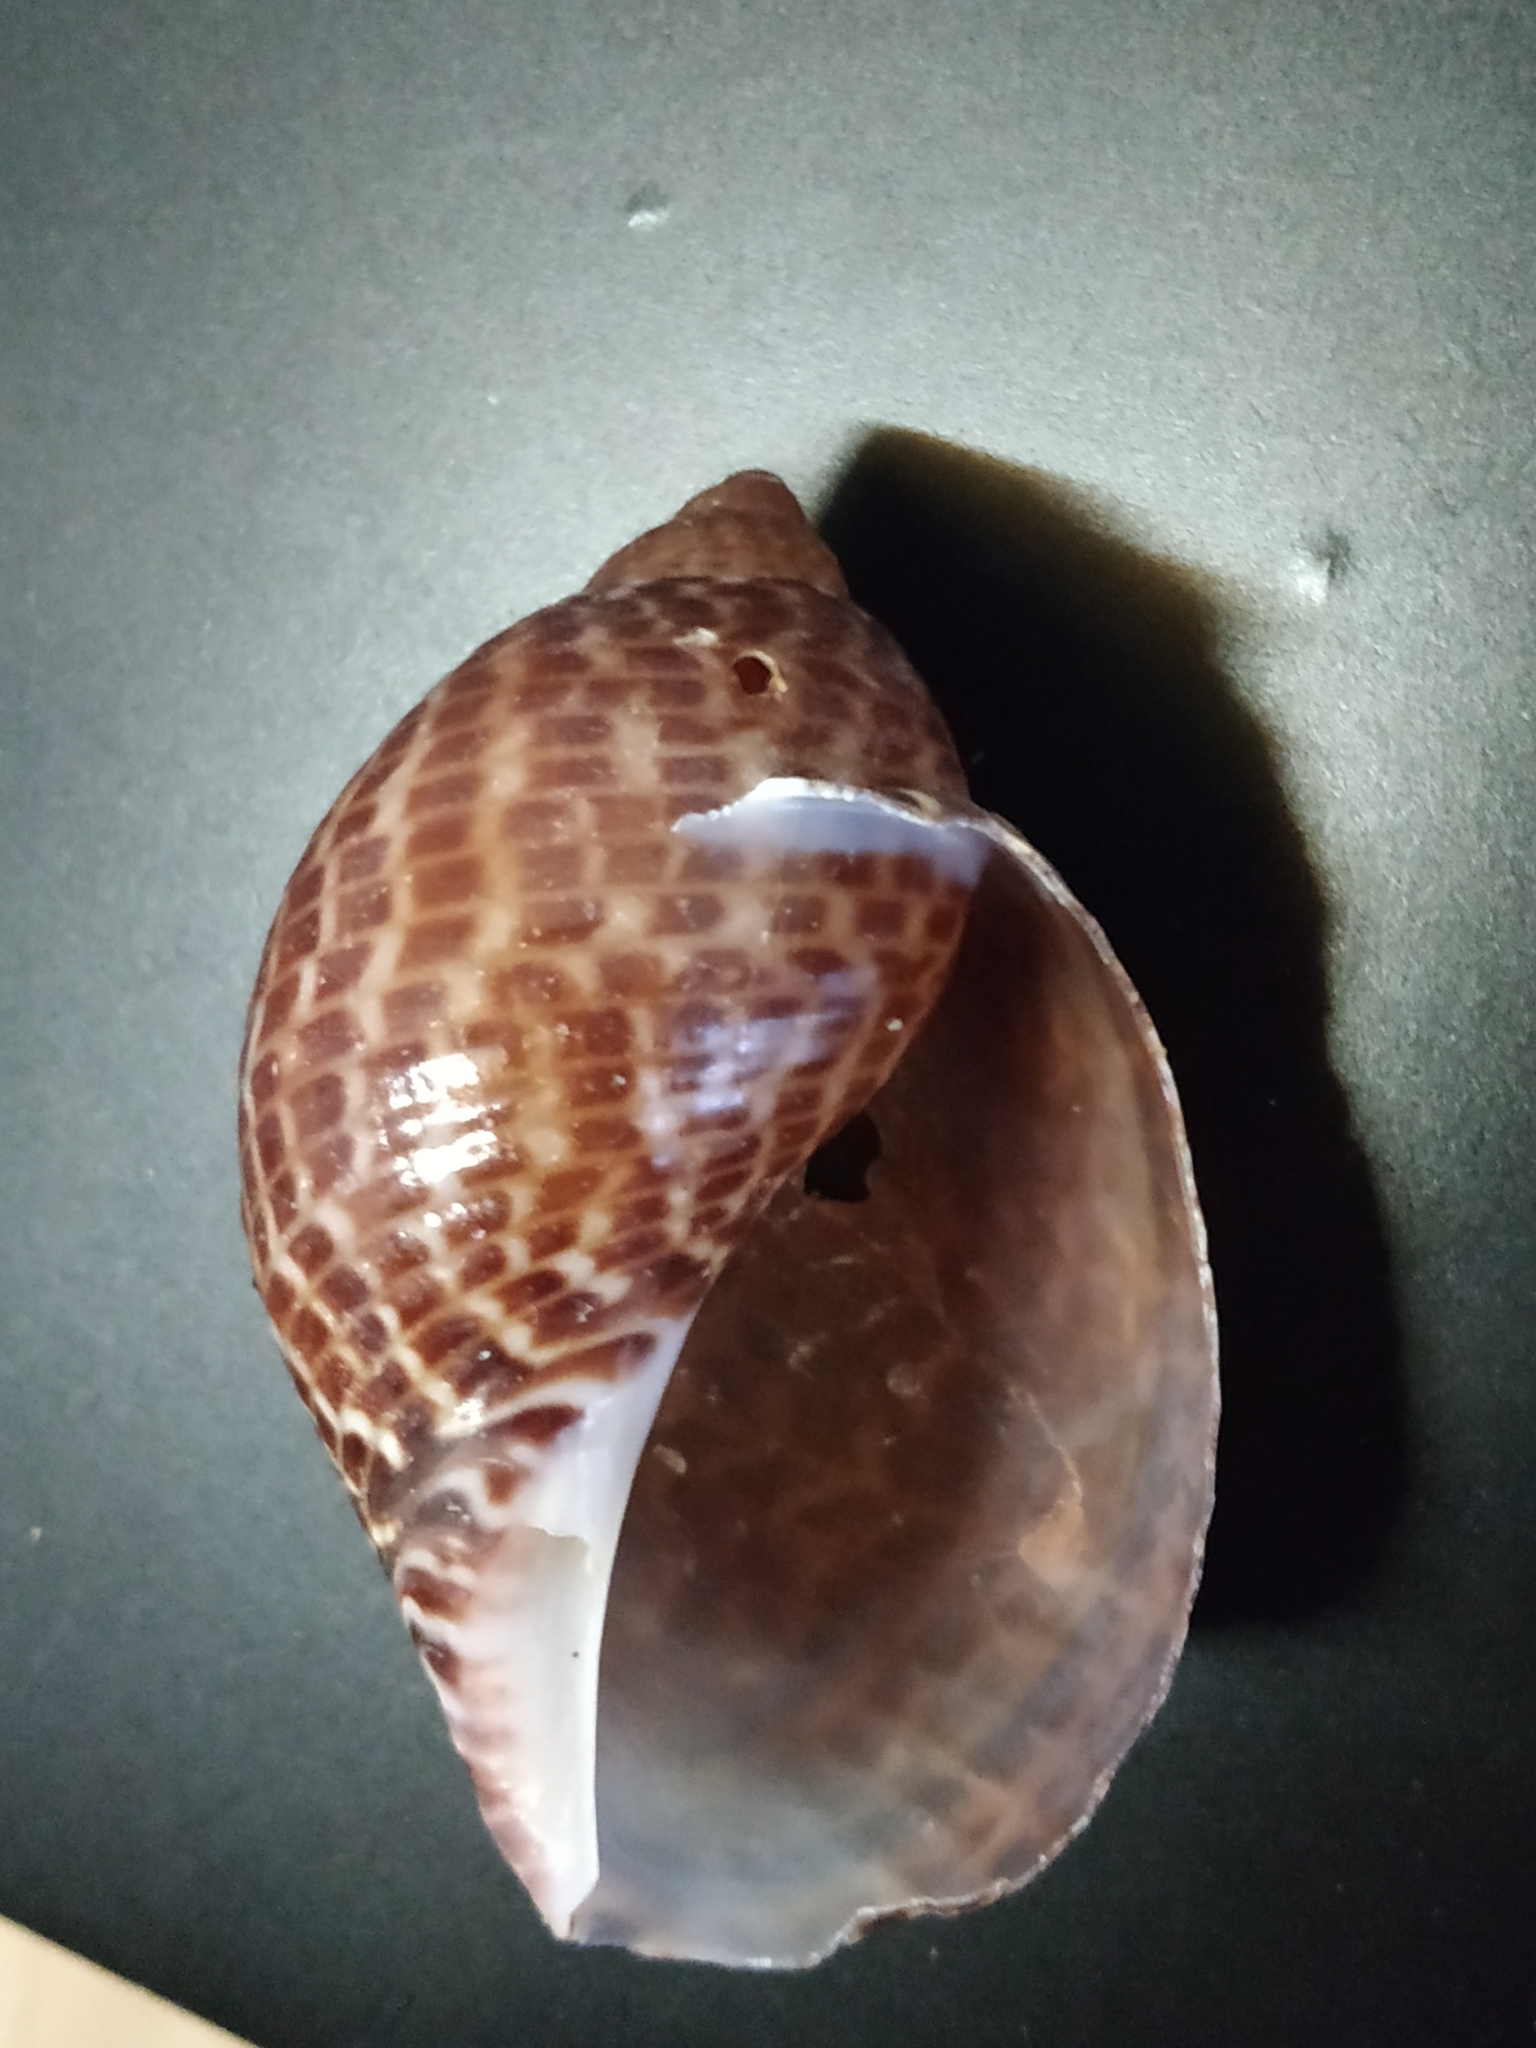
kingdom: Animalia
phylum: Mollusca
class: Gastropoda
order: Littorinimorpha
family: Tonnidae
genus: Tonna
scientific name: Tonna perdix
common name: Pacific partridge tun
